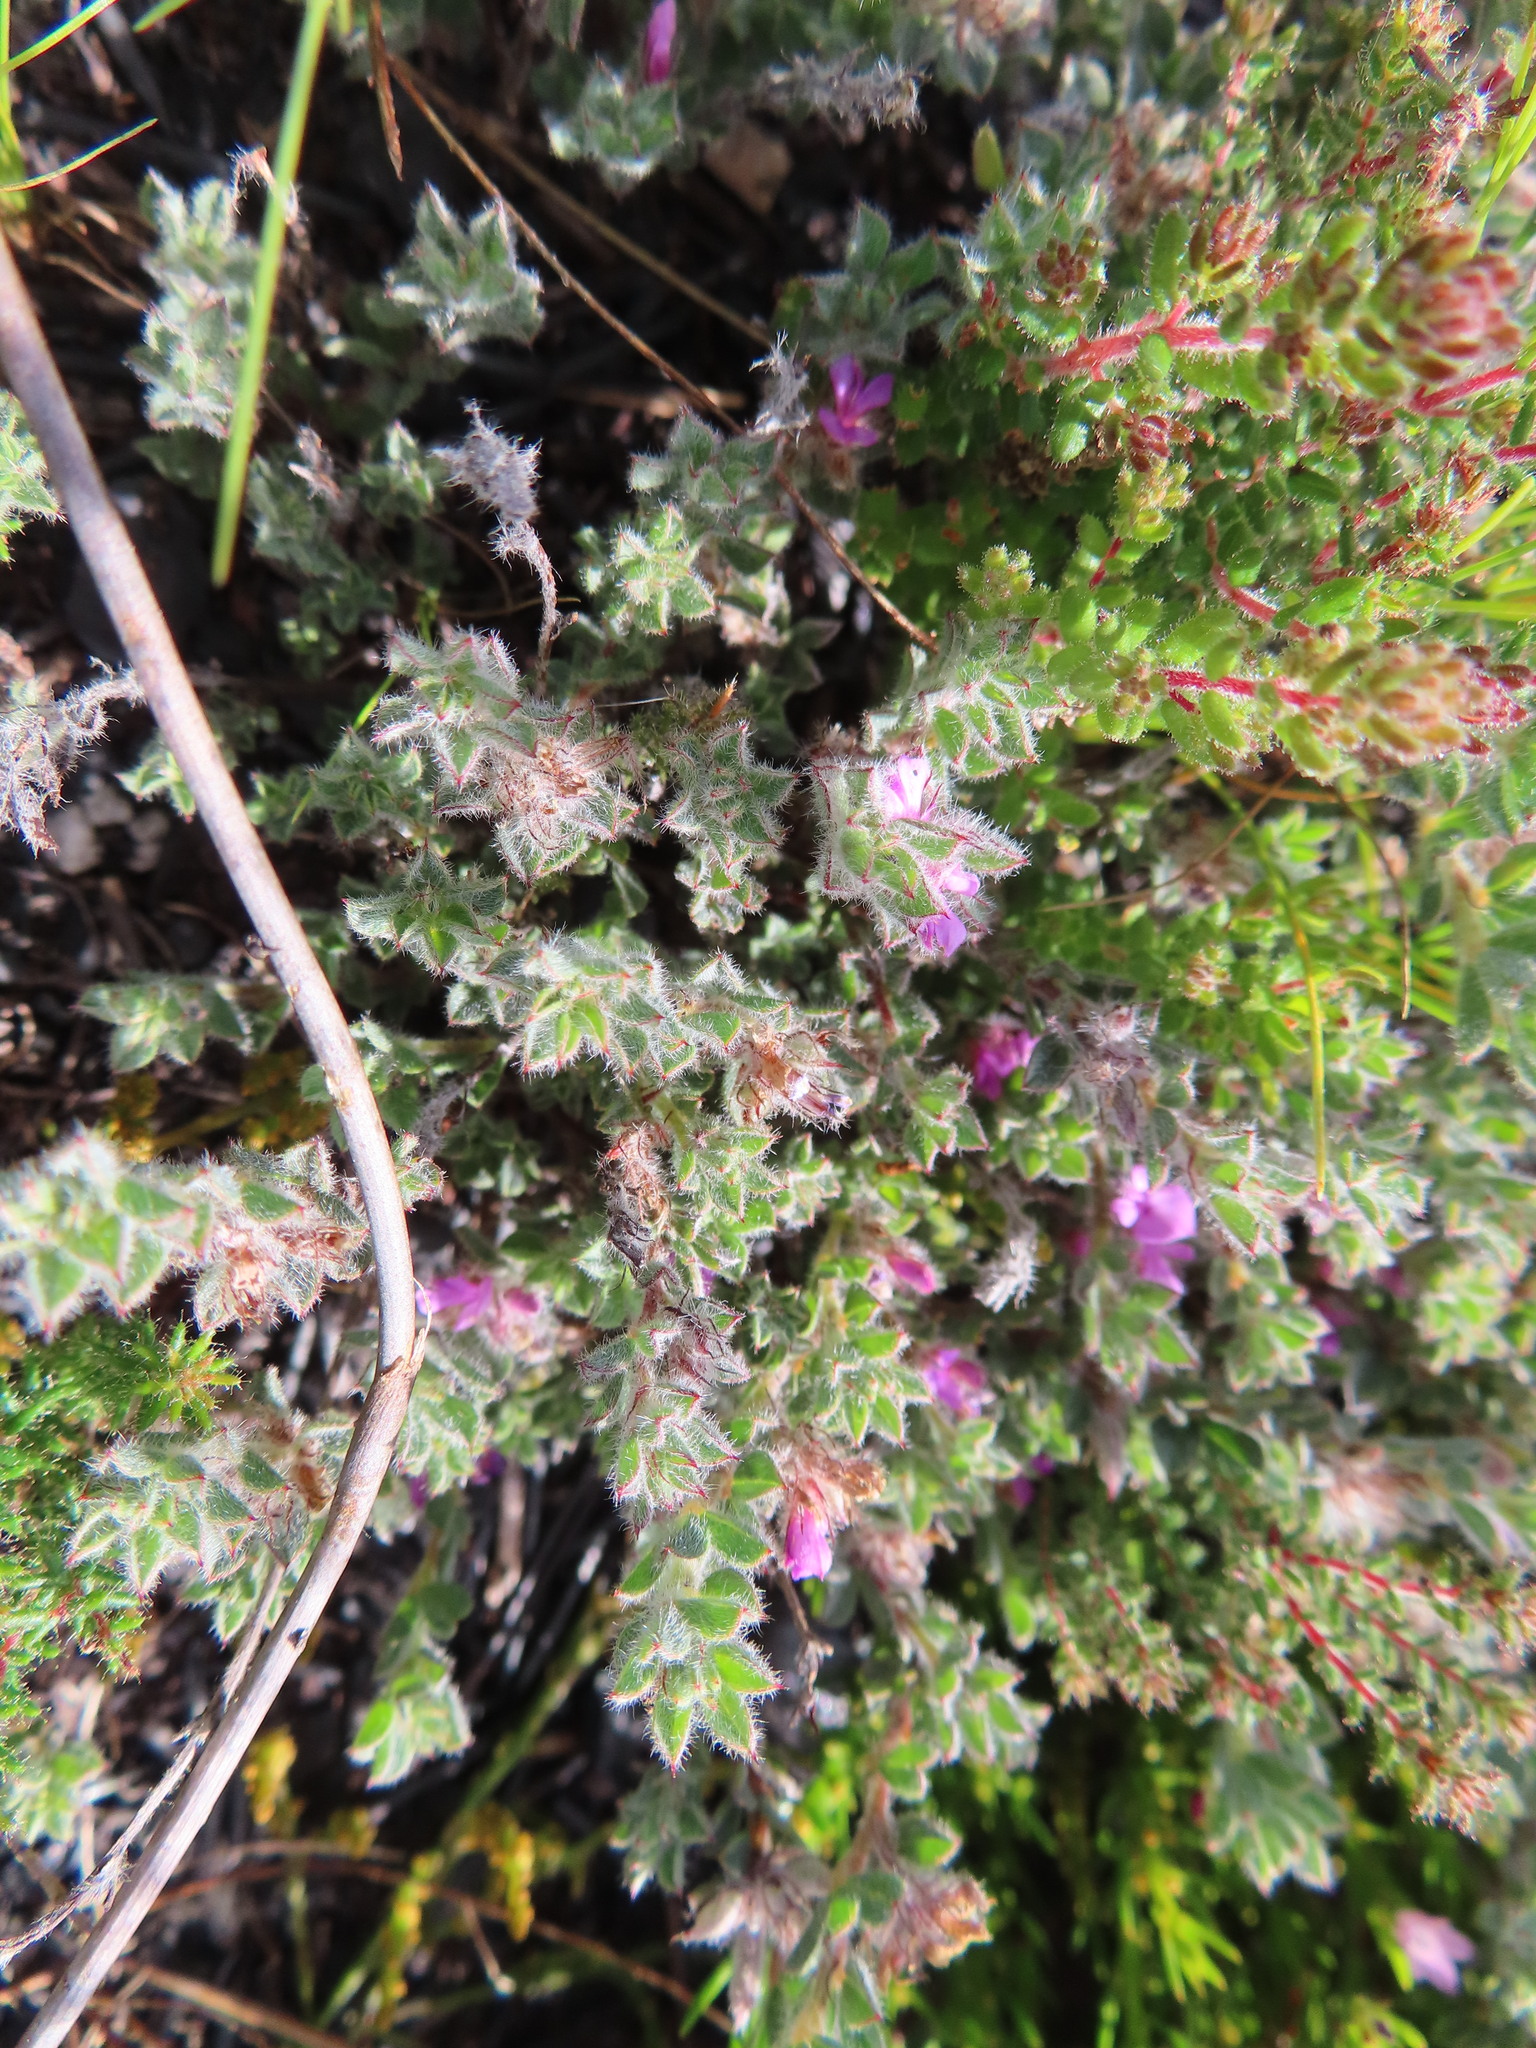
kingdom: Plantae
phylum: Tracheophyta
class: Magnoliopsida
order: Fabales
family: Fabaceae
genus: Indigofera
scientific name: Indigofera glomerata
